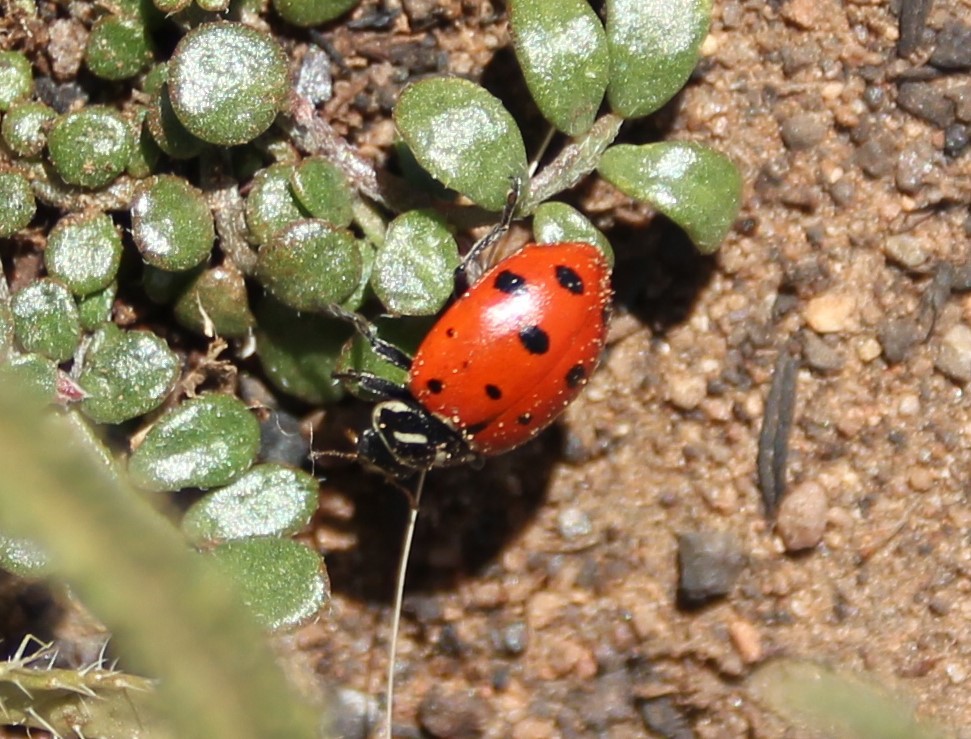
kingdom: Animalia
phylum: Arthropoda
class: Insecta
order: Coleoptera
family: Coccinellidae
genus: Hippodamia
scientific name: Hippodamia convergens
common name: Convergent lady beetle
